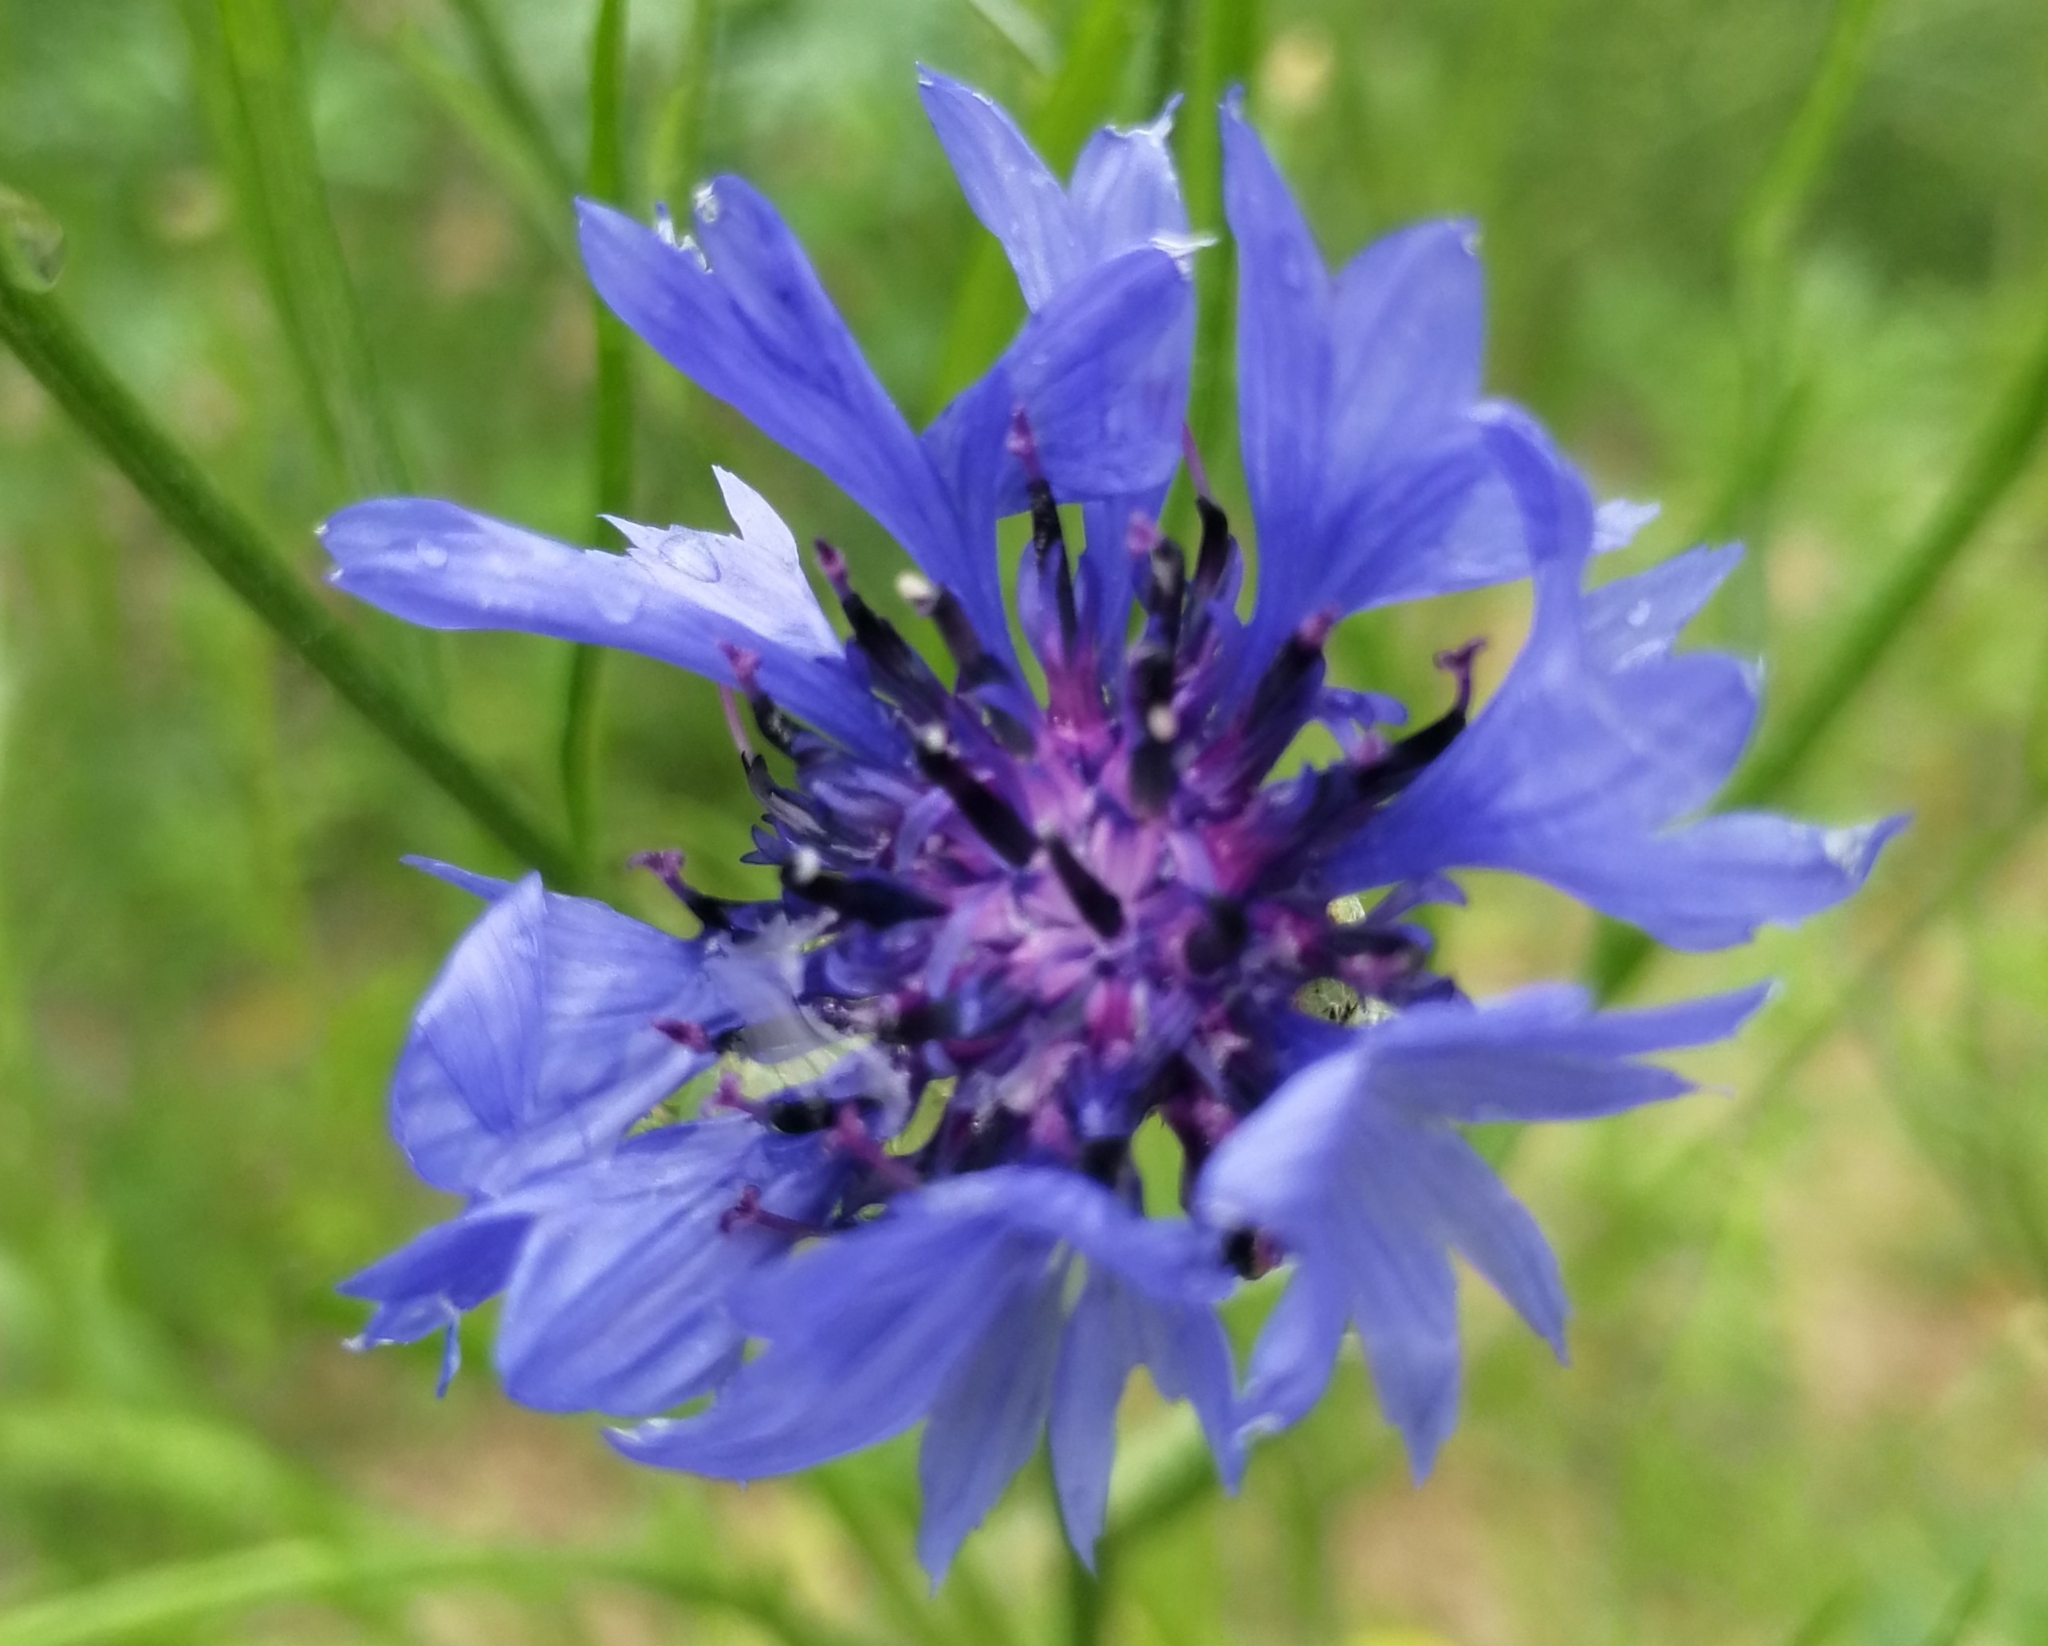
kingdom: Plantae
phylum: Tracheophyta
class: Magnoliopsida
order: Asterales
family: Asteraceae
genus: Centaurea
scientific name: Centaurea cyanus
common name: Cornflower
